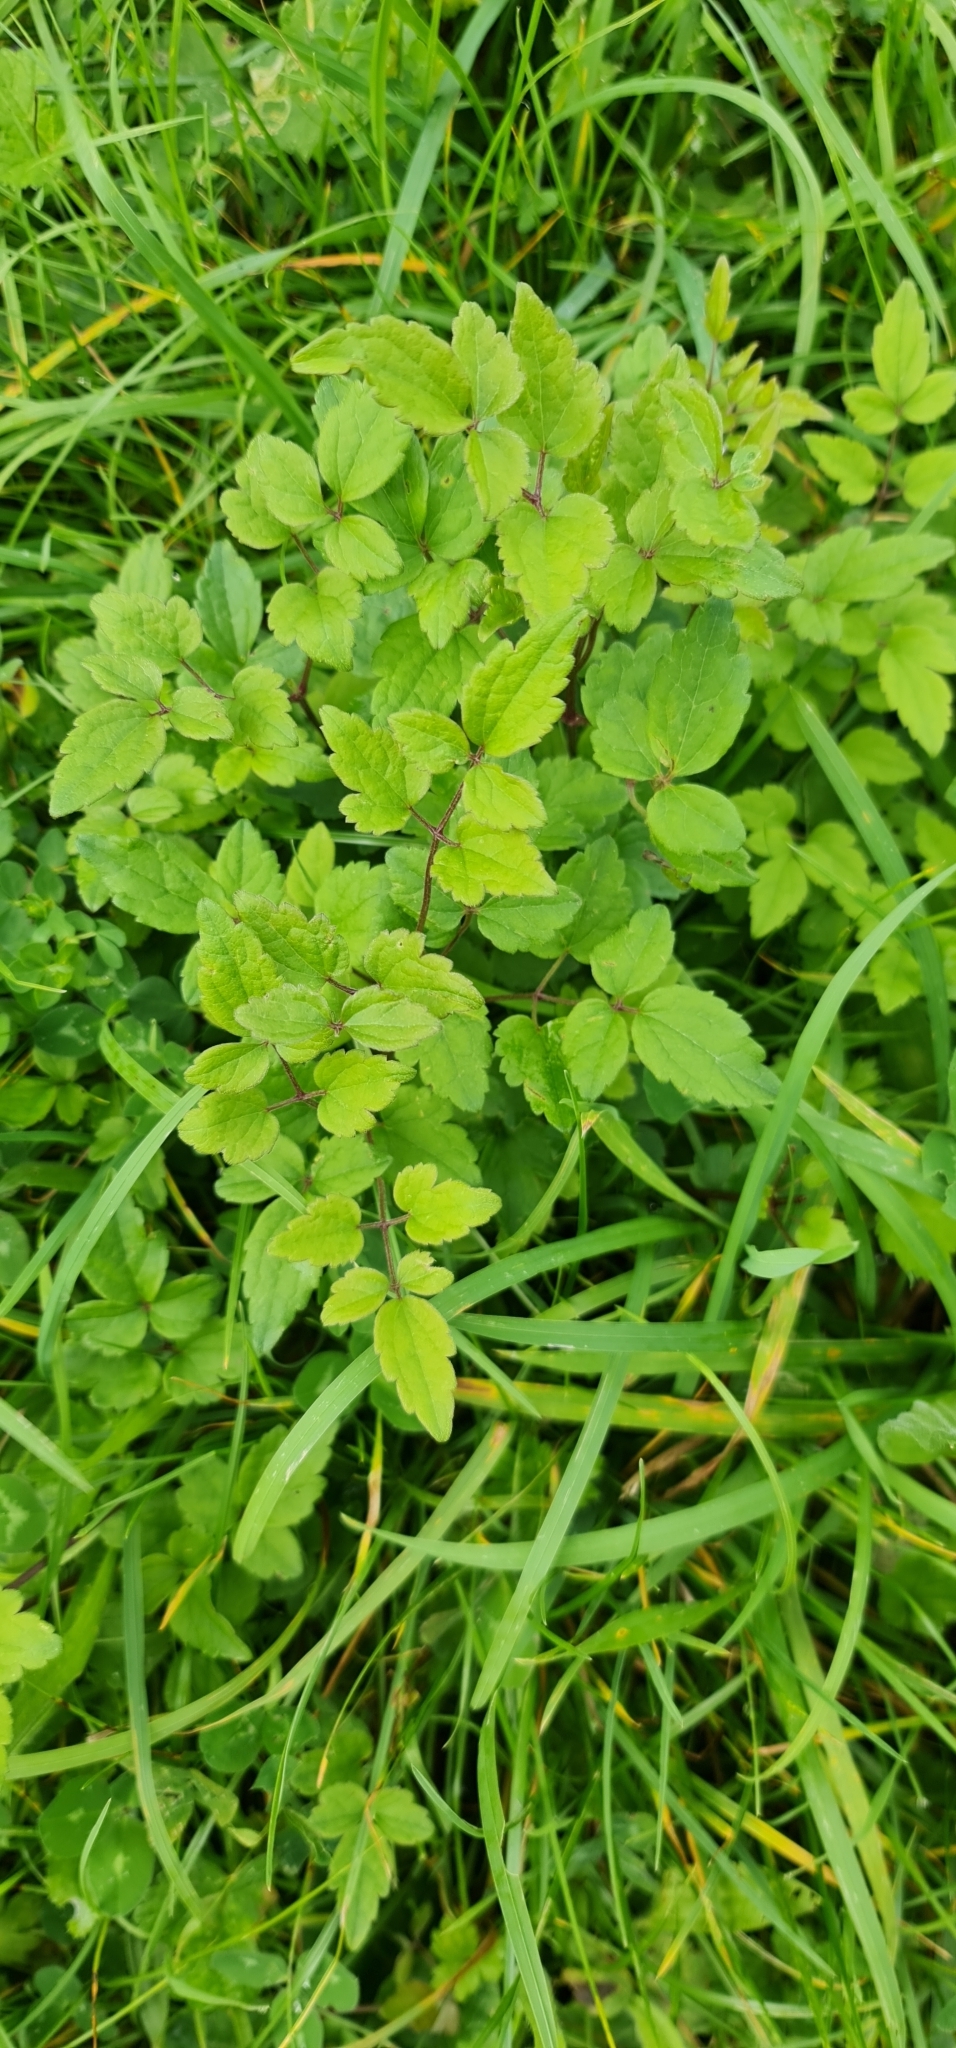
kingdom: Plantae
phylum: Tracheophyta
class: Magnoliopsida
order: Ranunculales
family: Ranunculaceae
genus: Clematis
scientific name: Clematis vitalba
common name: Evergreen clematis
